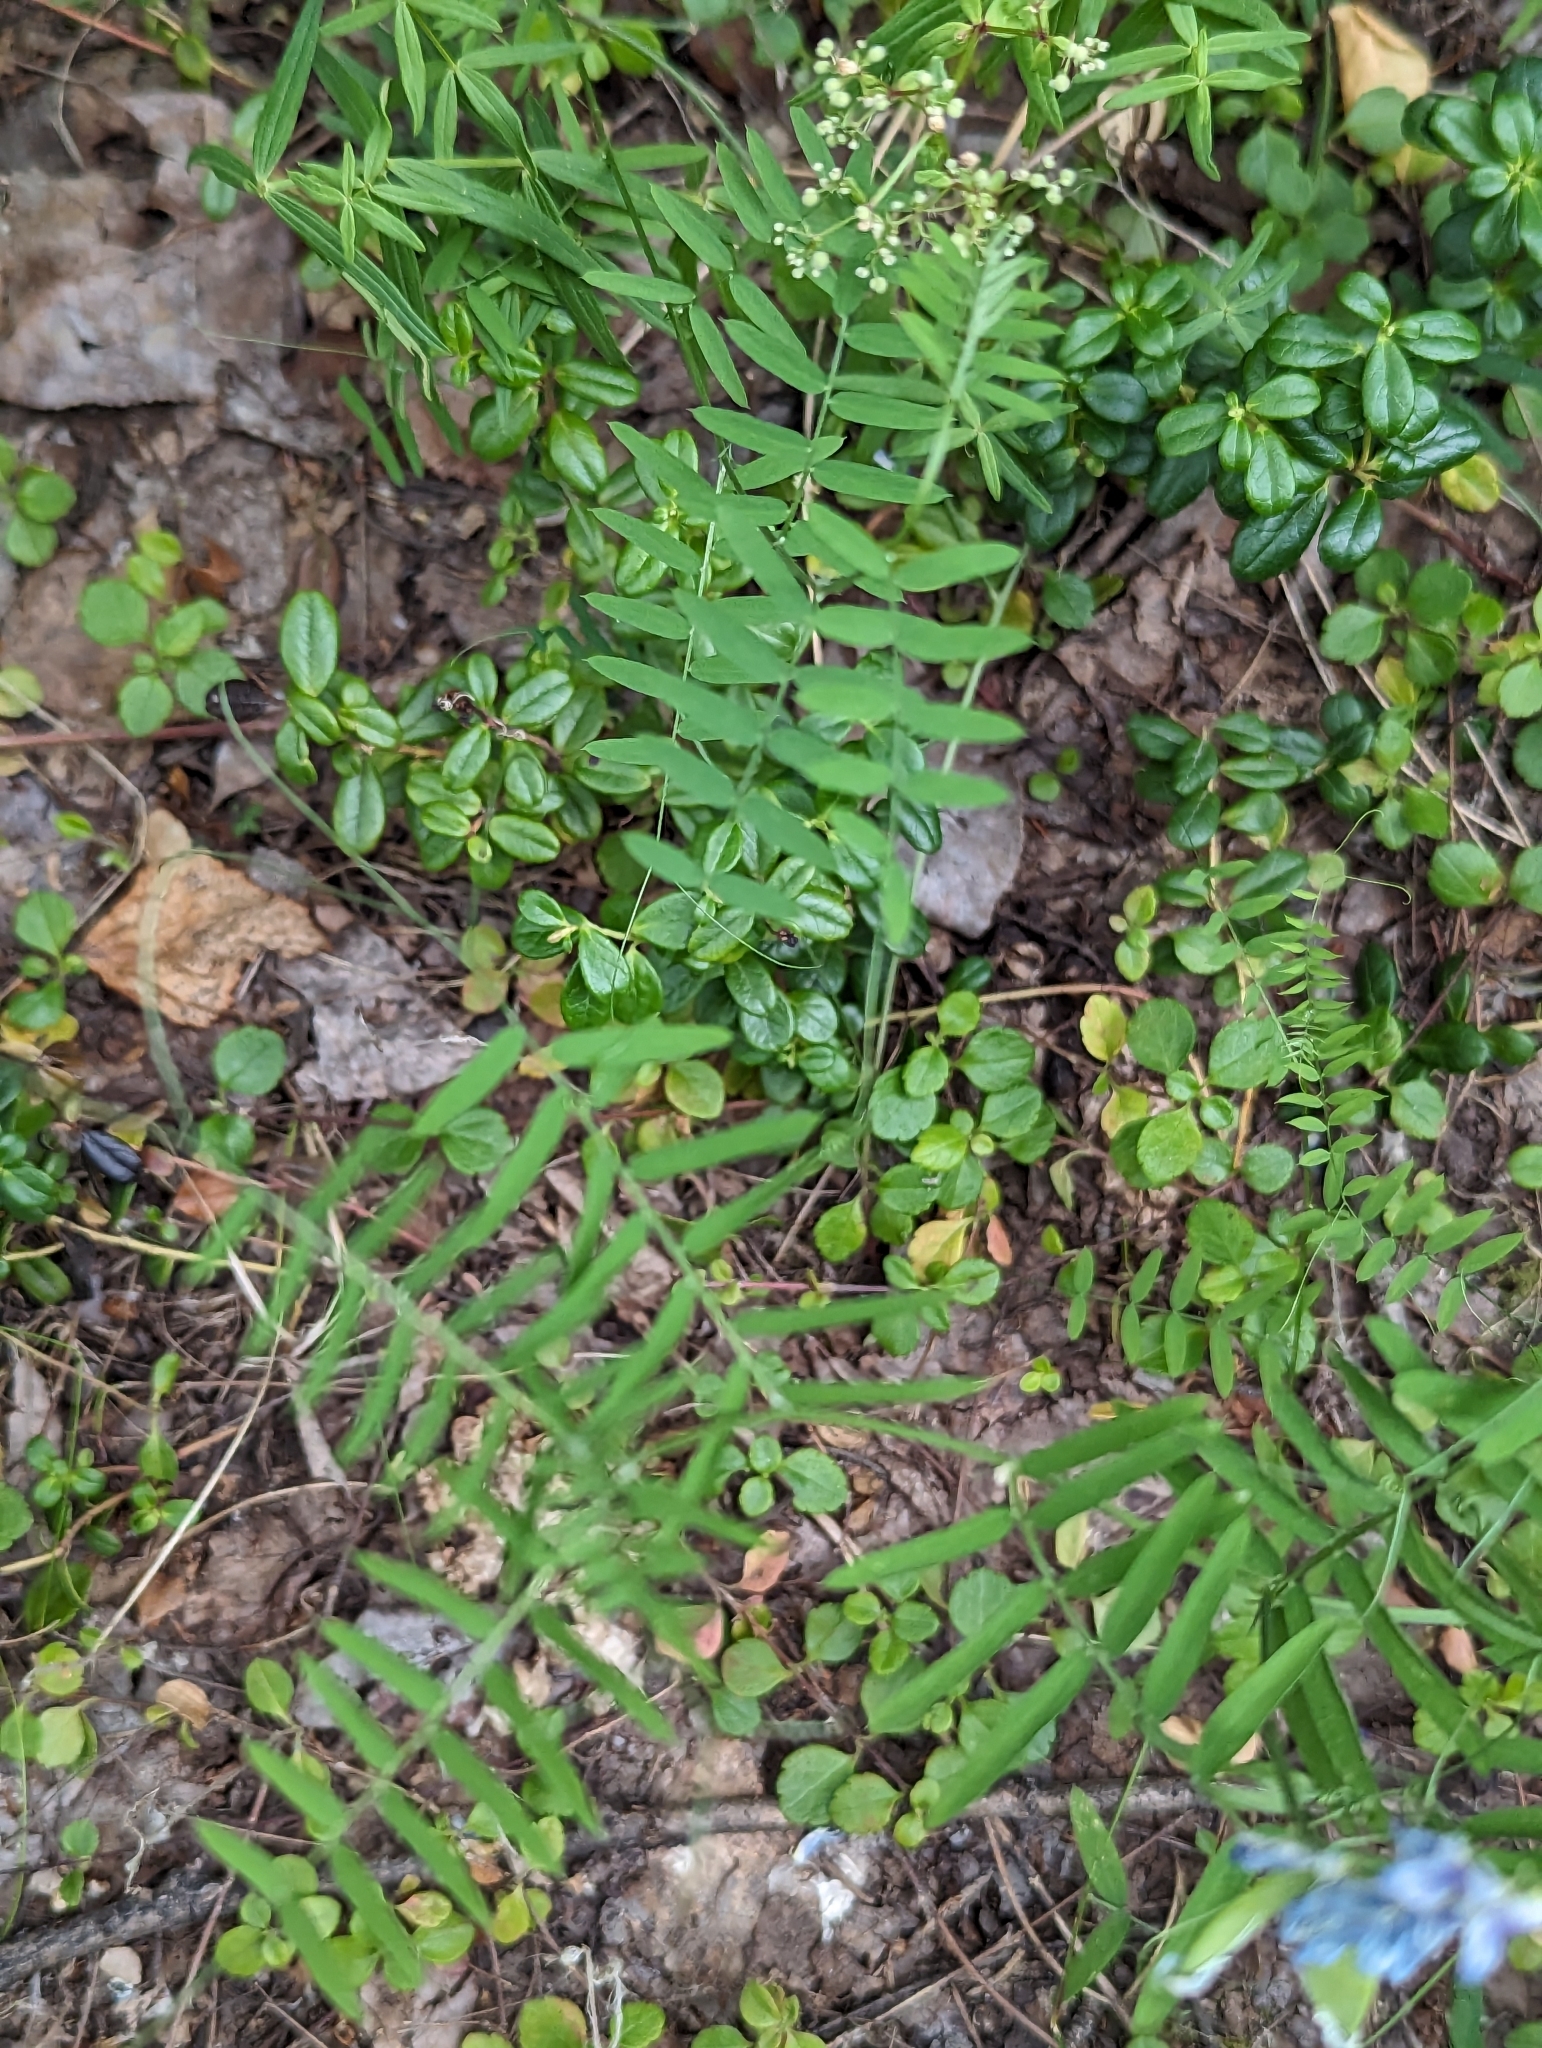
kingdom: Plantae
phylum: Tracheophyta
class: Magnoliopsida
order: Fabales
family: Fabaceae
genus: Vicia
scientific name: Vicia cracca
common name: Bird vetch
